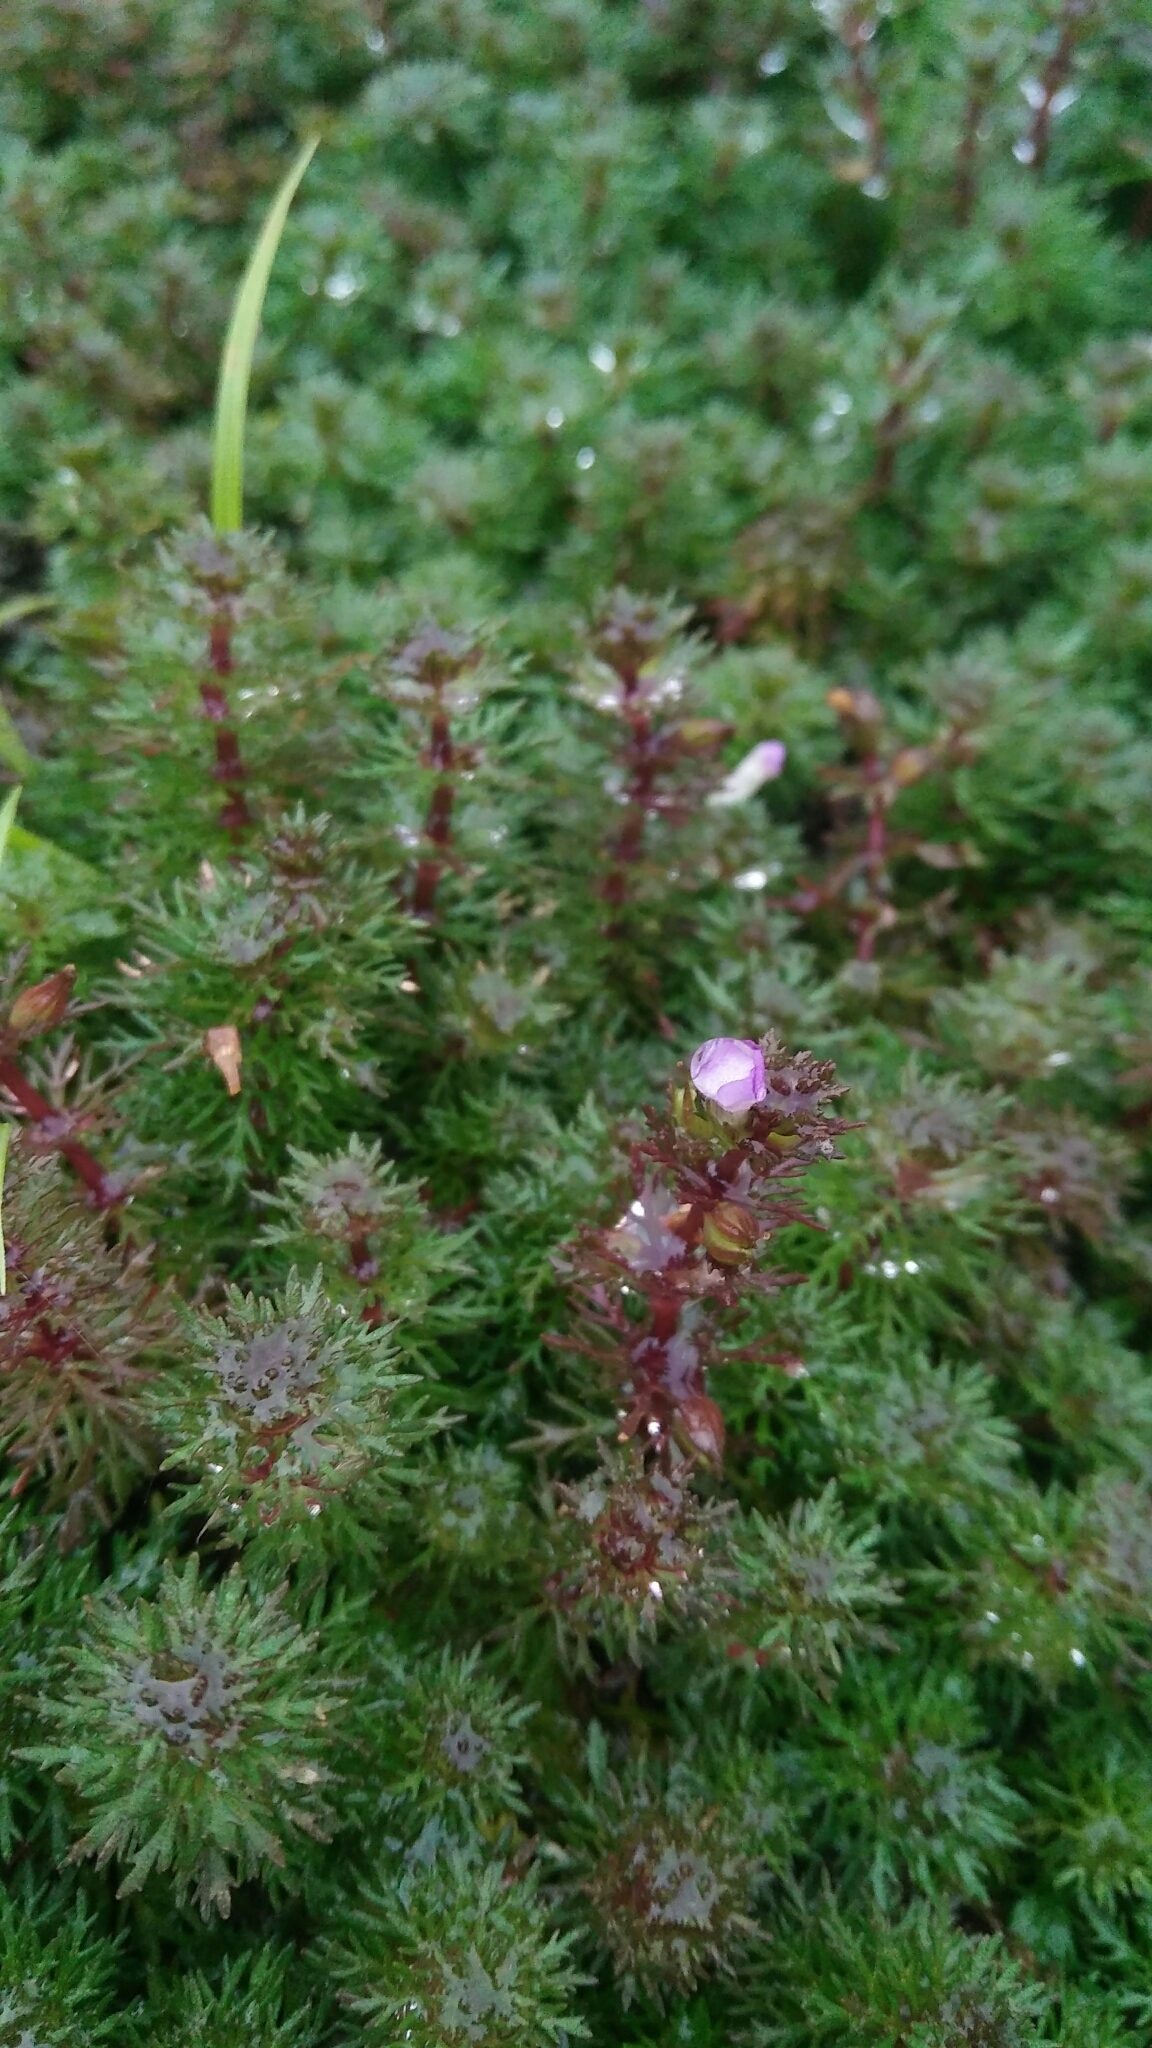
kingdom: Plantae
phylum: Tracheophyta
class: Magnoliopsida
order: Lamiales
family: Plantaginaceae
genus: Limnophila
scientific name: Limnophila indica
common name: Indian marshweed
